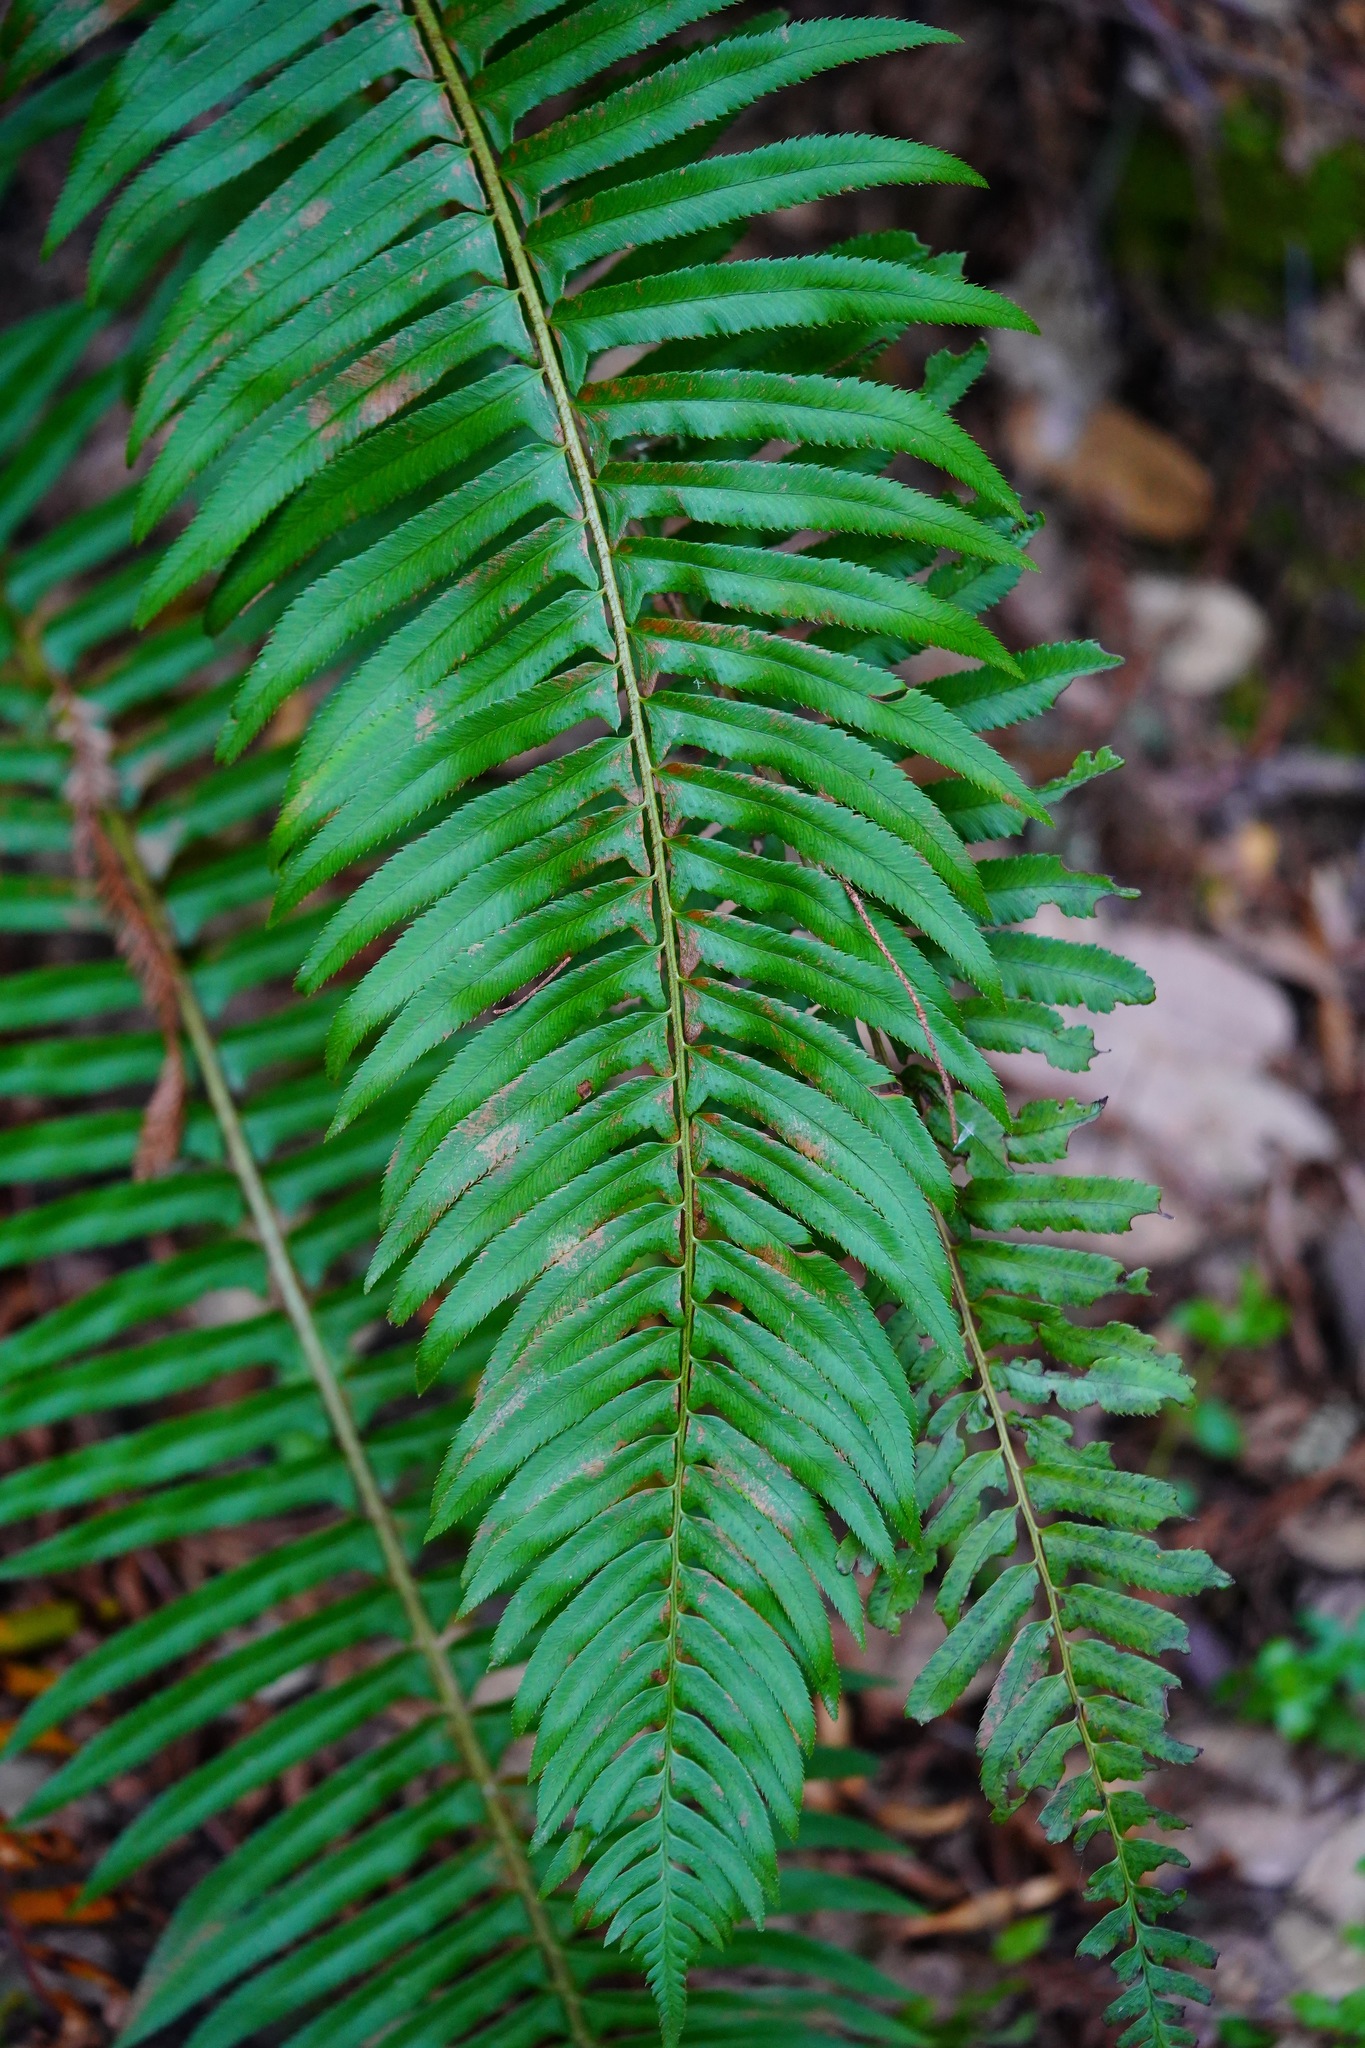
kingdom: Plantae
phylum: Tracheophyta
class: Polypodiopsida
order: Polypodiales
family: Dryopteridaceae
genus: Polystichum
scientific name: Polystichum munitum
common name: Western sword-fern
